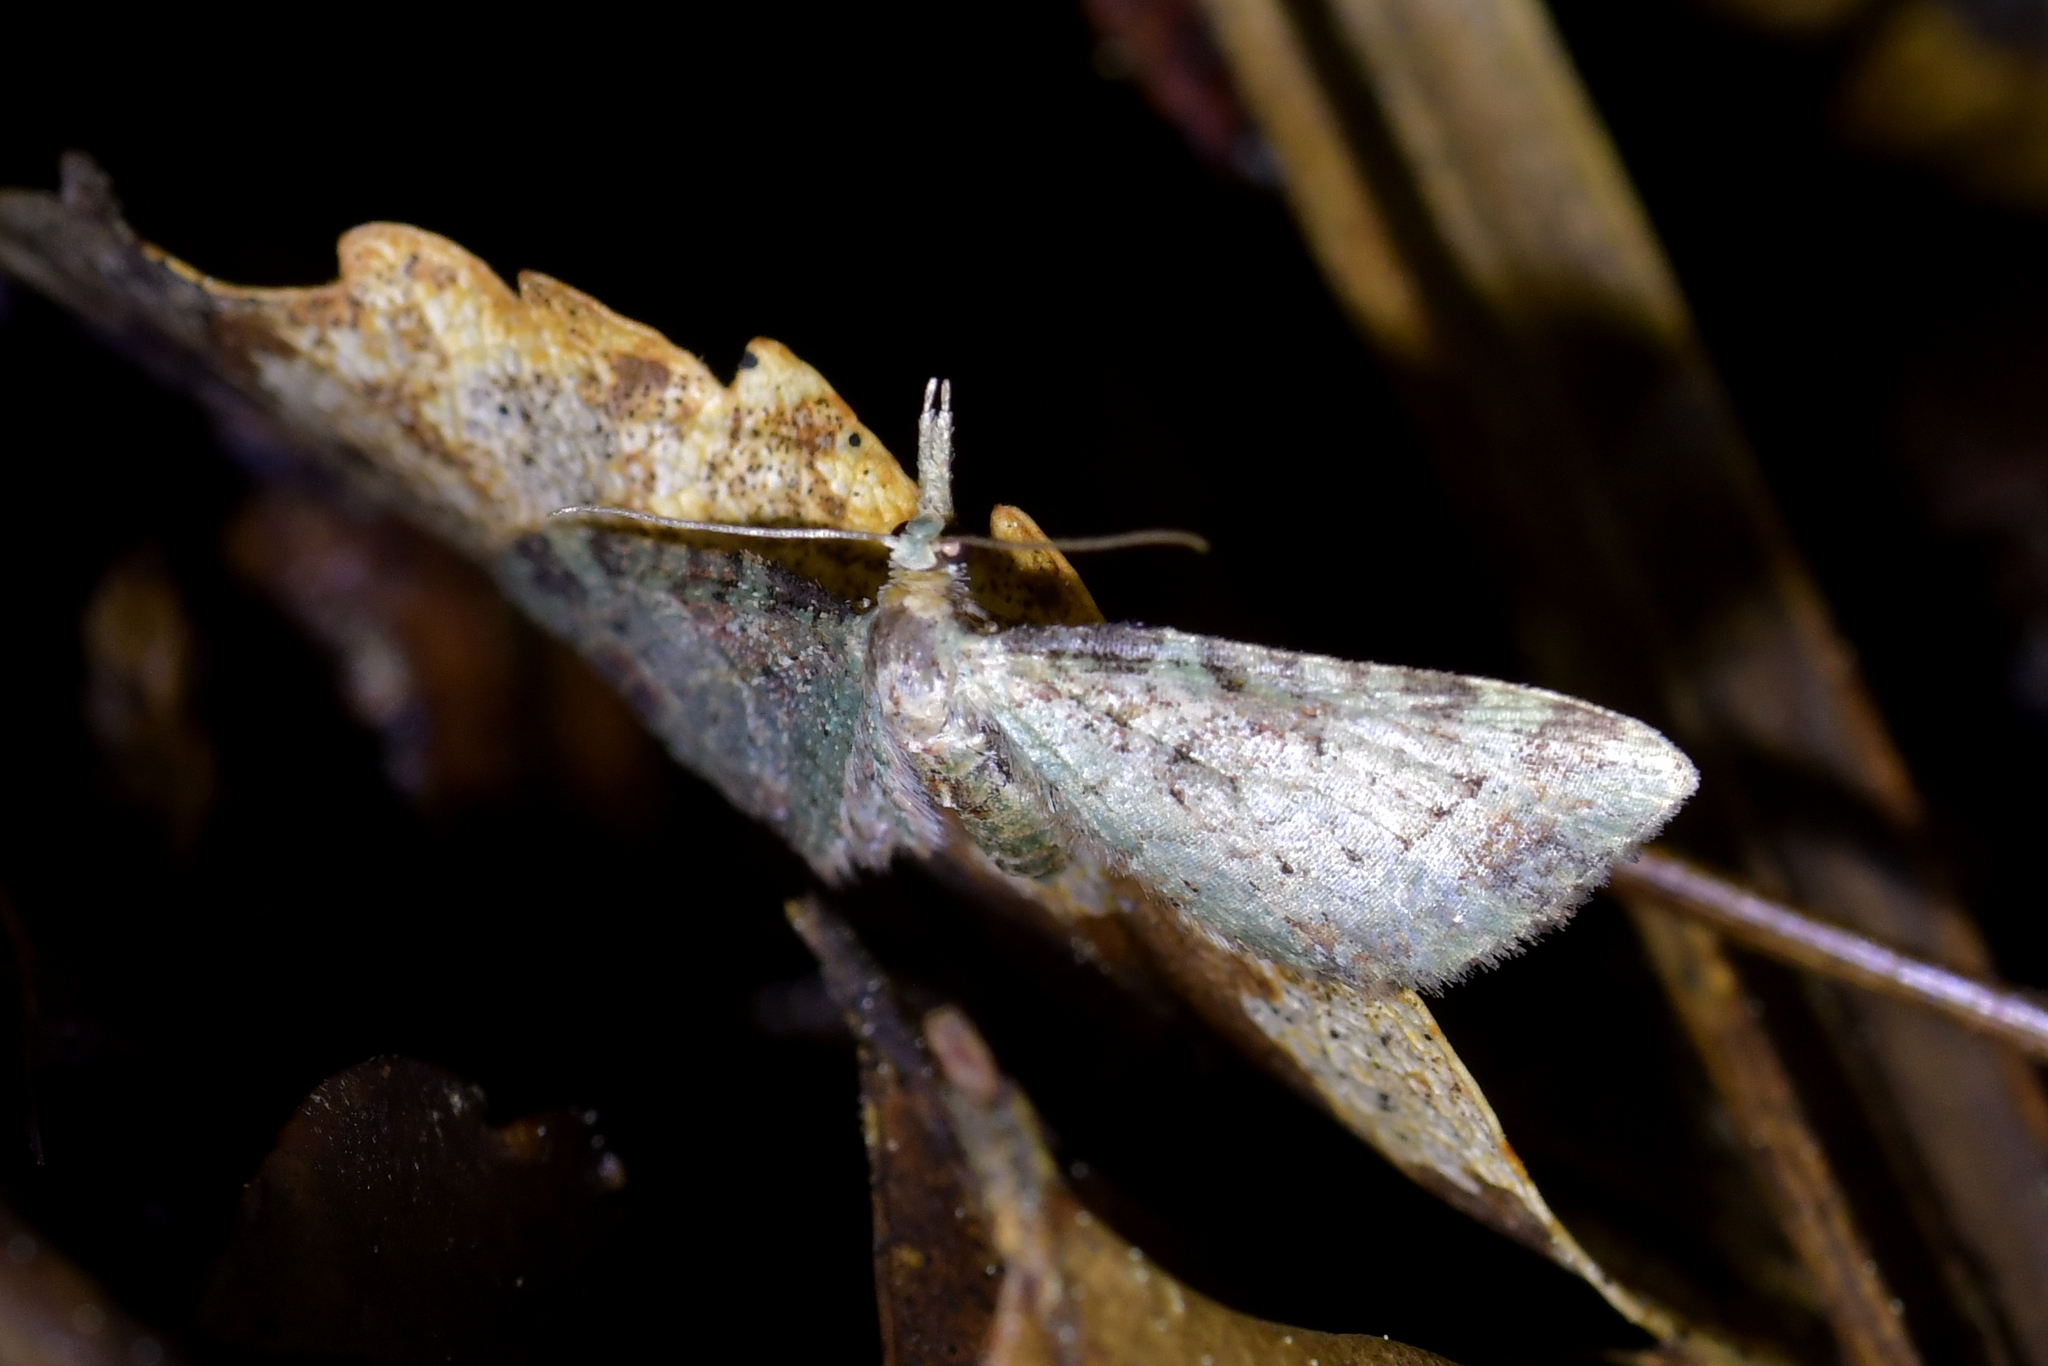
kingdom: Animalia
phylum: Arthropoda
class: Insecta
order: Lepidoptera
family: Geometridae
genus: Pasiphila
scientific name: Pasiphila plinthina
